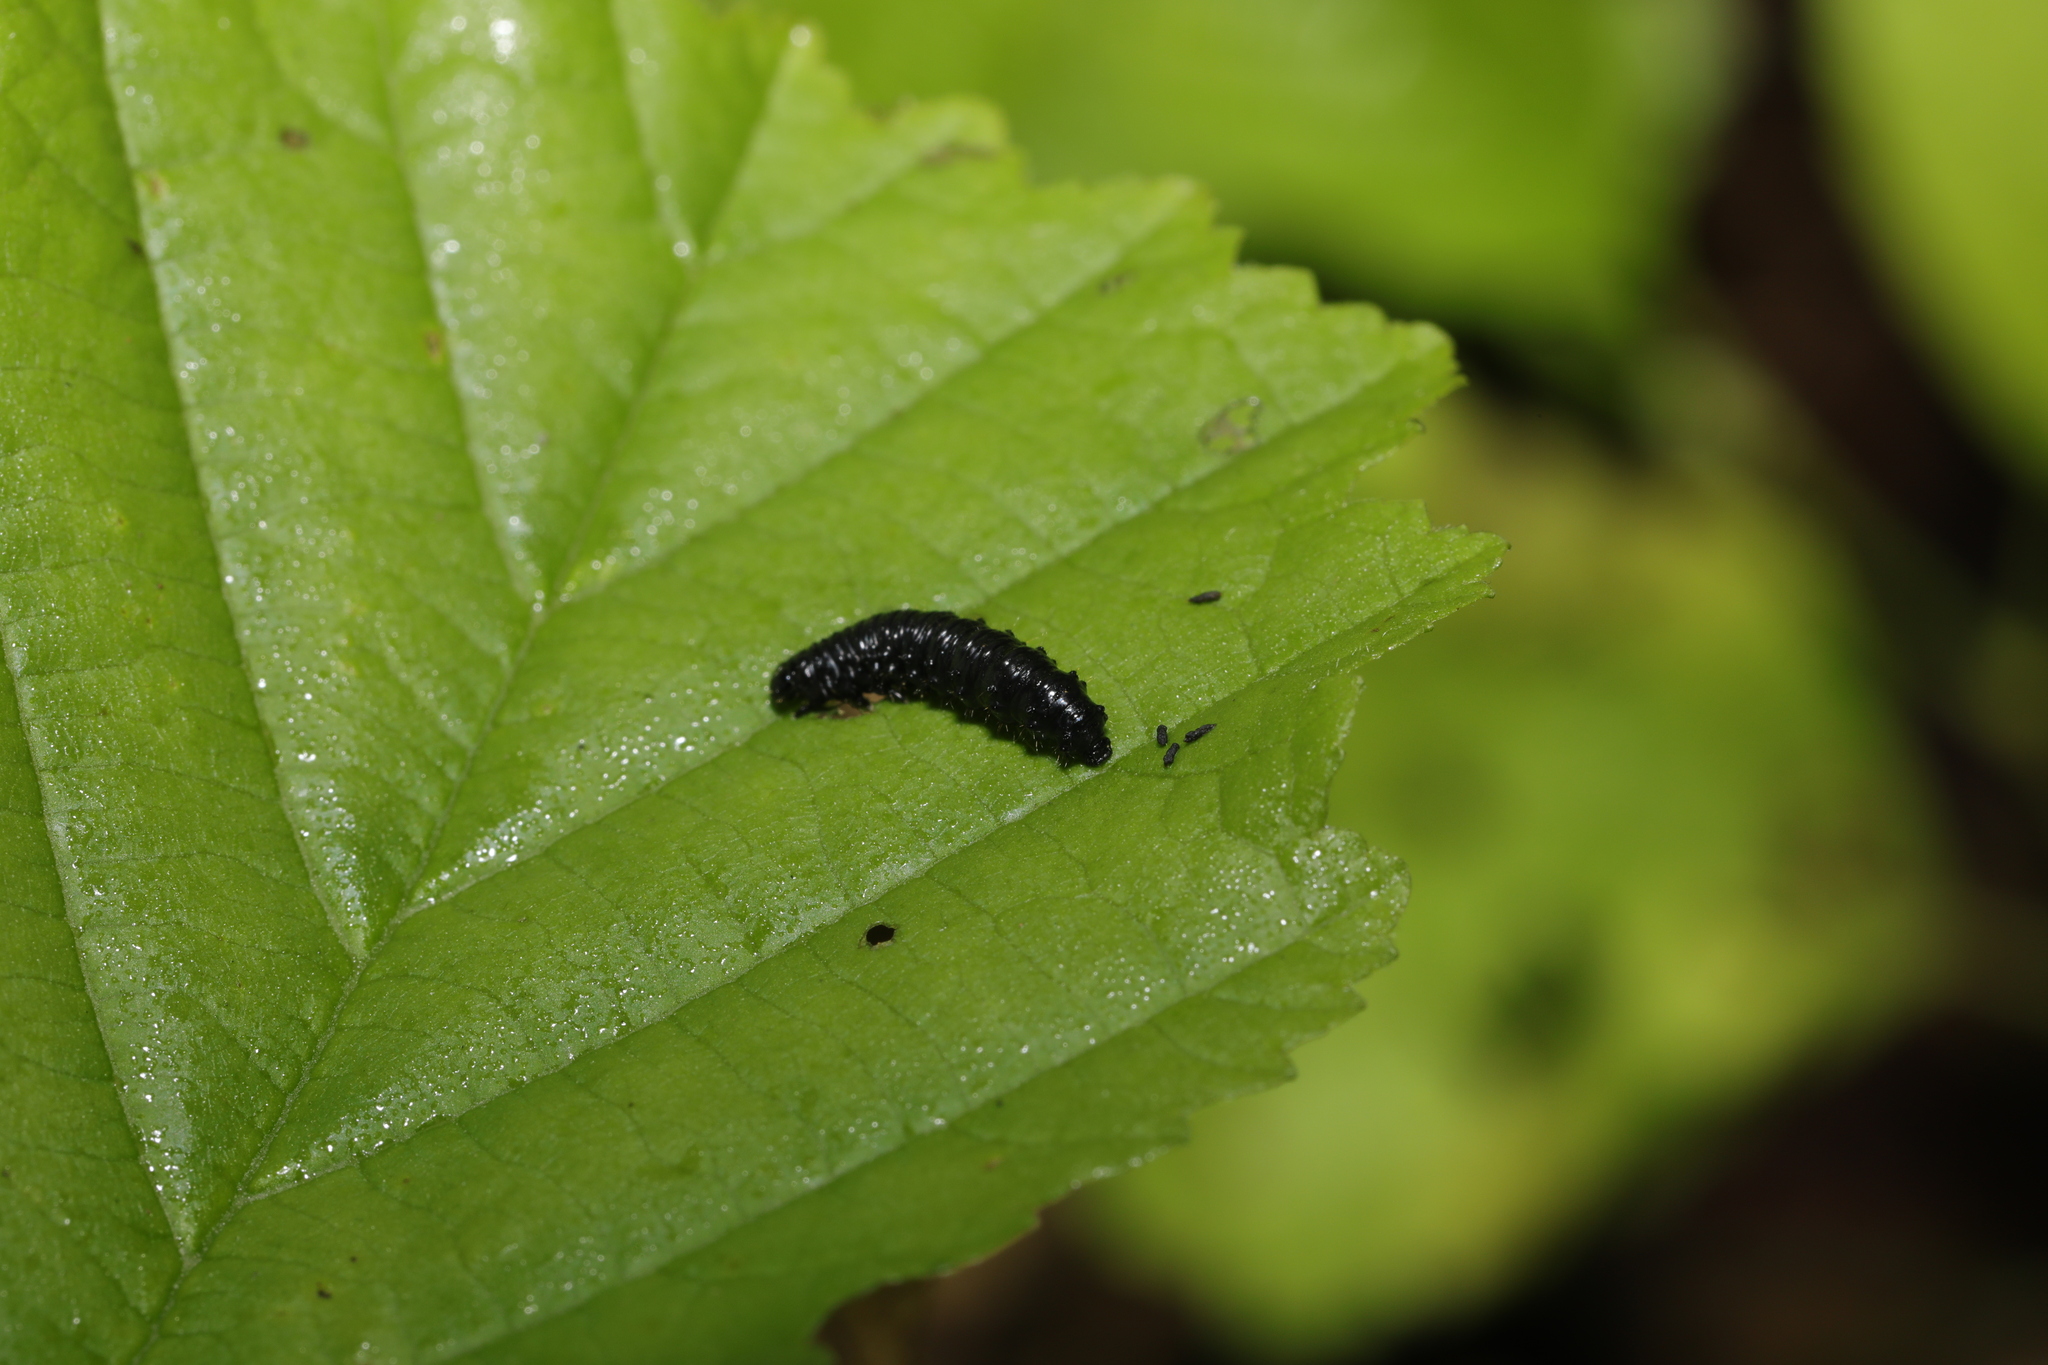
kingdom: Animalia
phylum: Arthropoda
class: Insecta
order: Coleoptera
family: Chrysomelidae
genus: Agelastica
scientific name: Agelastica alni
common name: Alder leaf beetle
